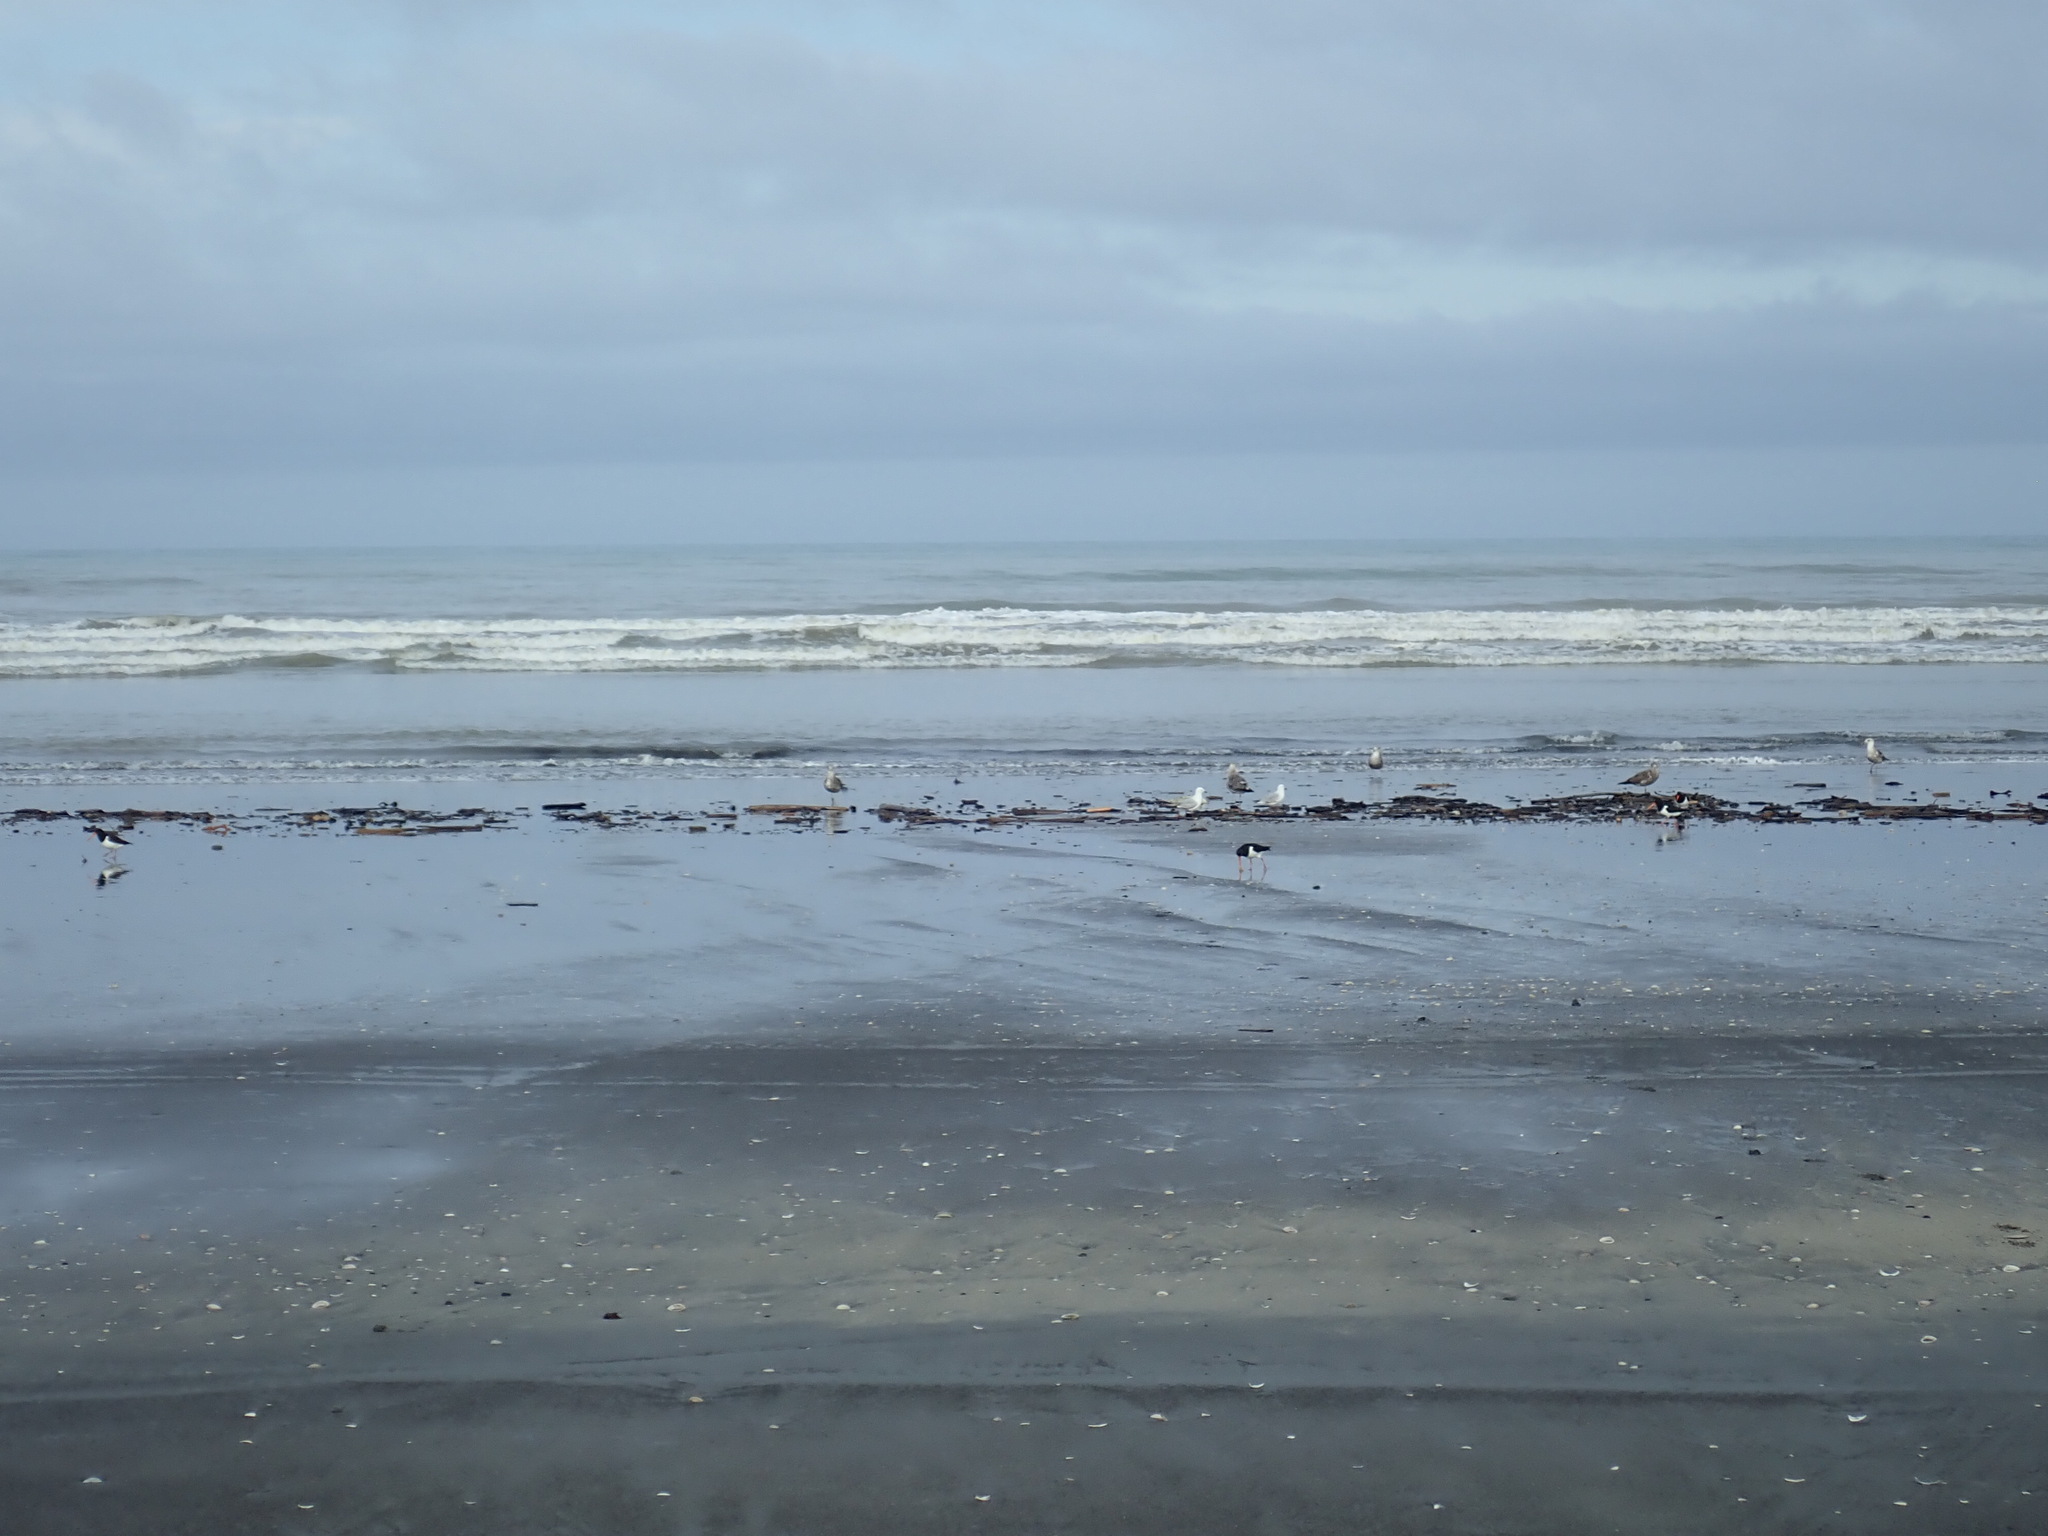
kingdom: Animalia
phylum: Chordata
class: Aves
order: Charadriiformes
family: Haematopodidae
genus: Haematopus
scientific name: Haematopus finschi
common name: South island oystercatcher
